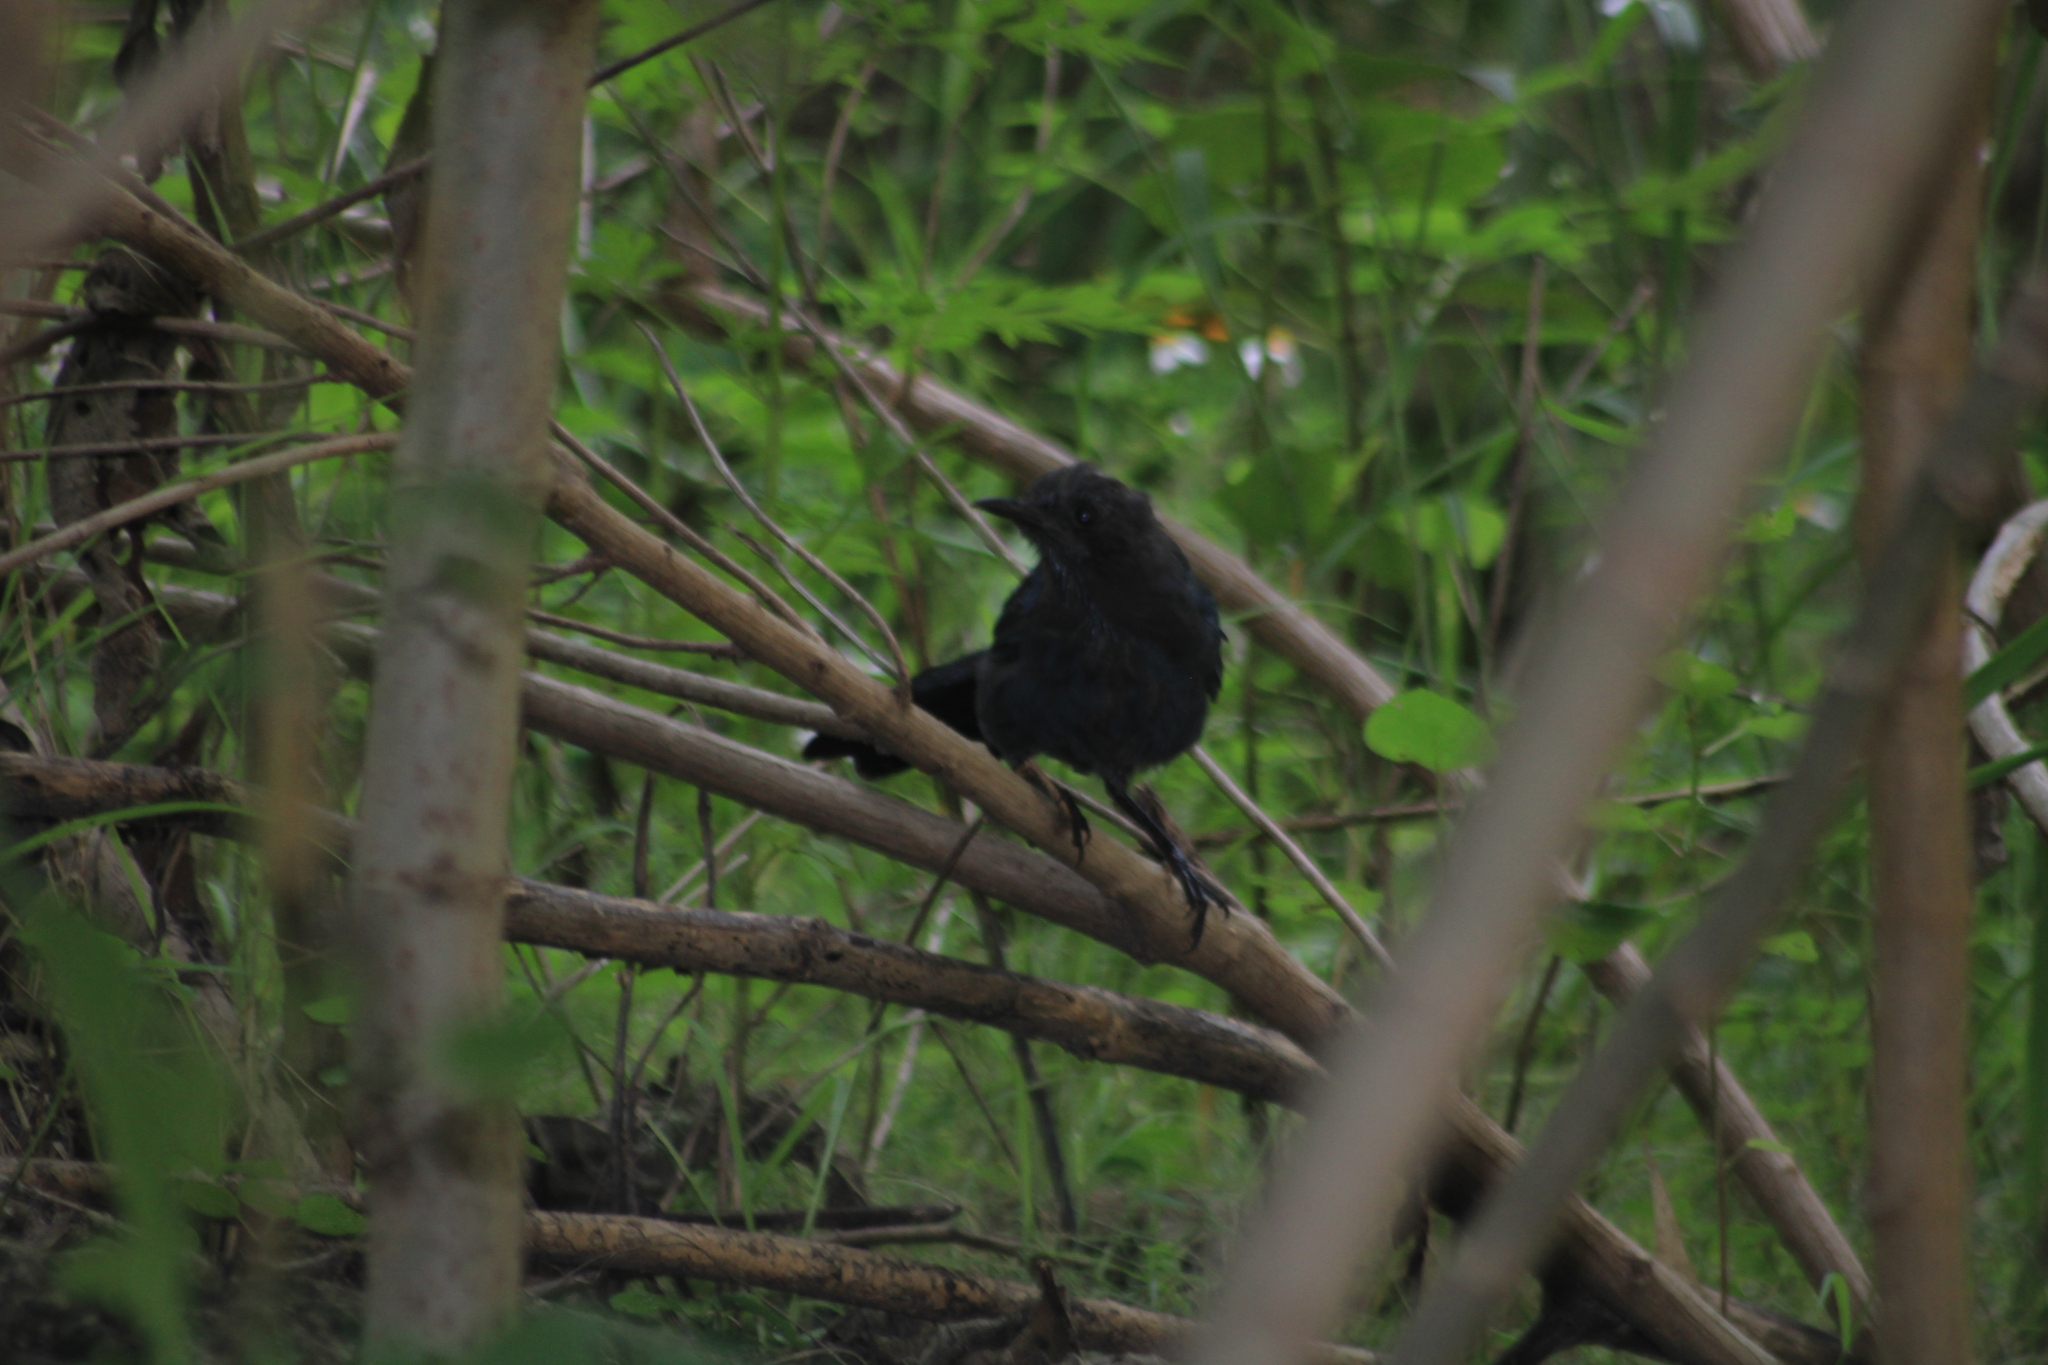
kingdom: Animalia
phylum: Chordata
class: Aves
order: Passeriformes
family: Mimidae
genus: Melanotis
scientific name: Melanotis caerulescens
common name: Blue mockingbird
